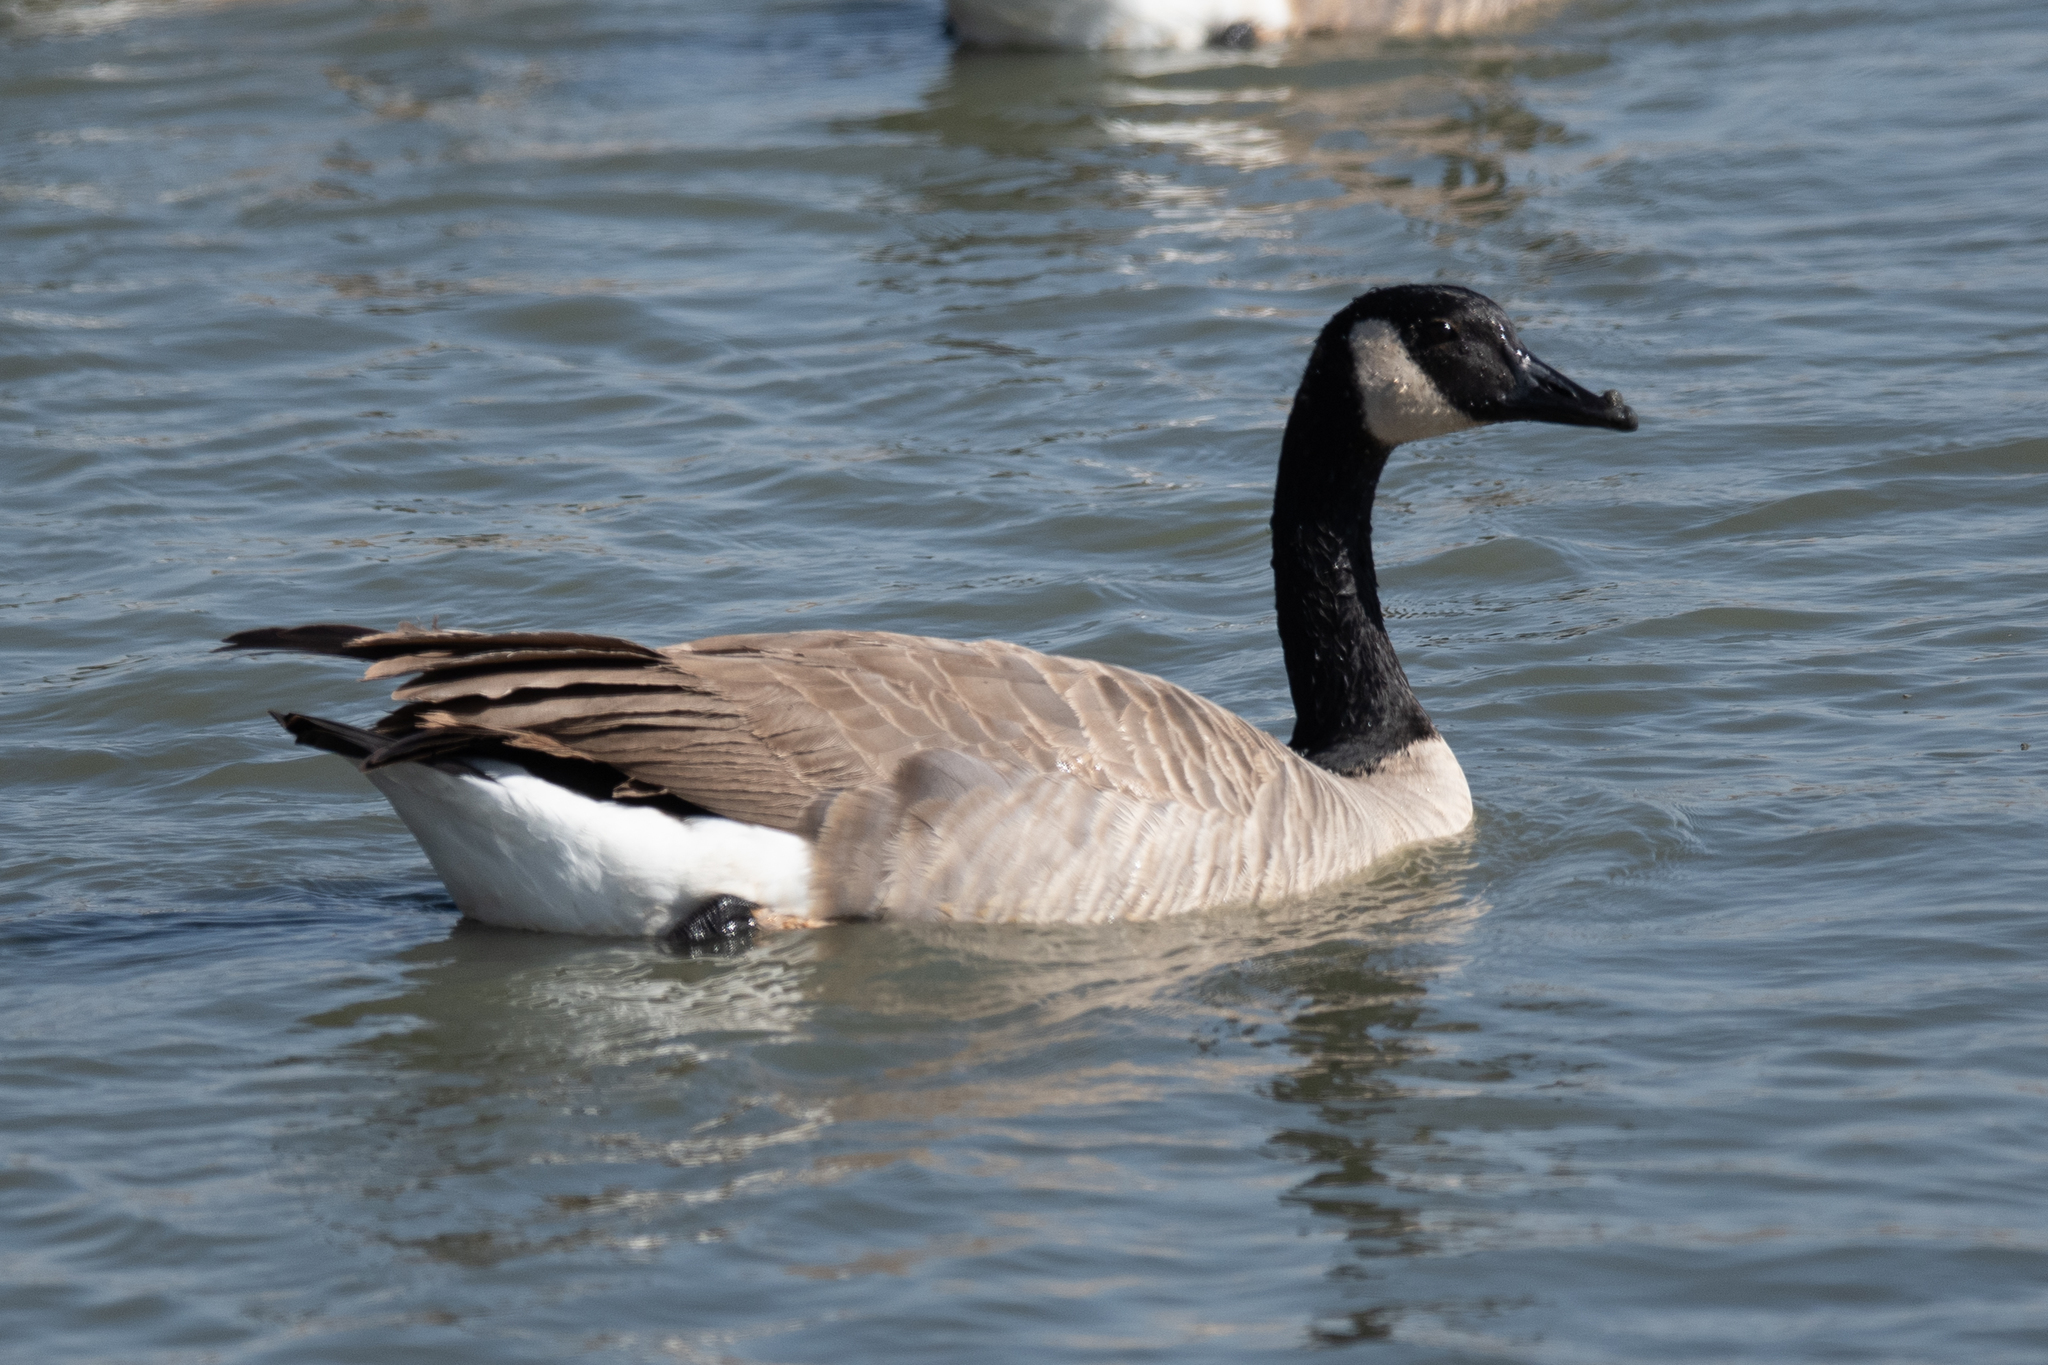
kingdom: Animalia
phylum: Chordata
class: Aves
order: Anseriformes
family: Anatidae
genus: Branta
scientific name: Branta canadensis
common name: Canada goose
